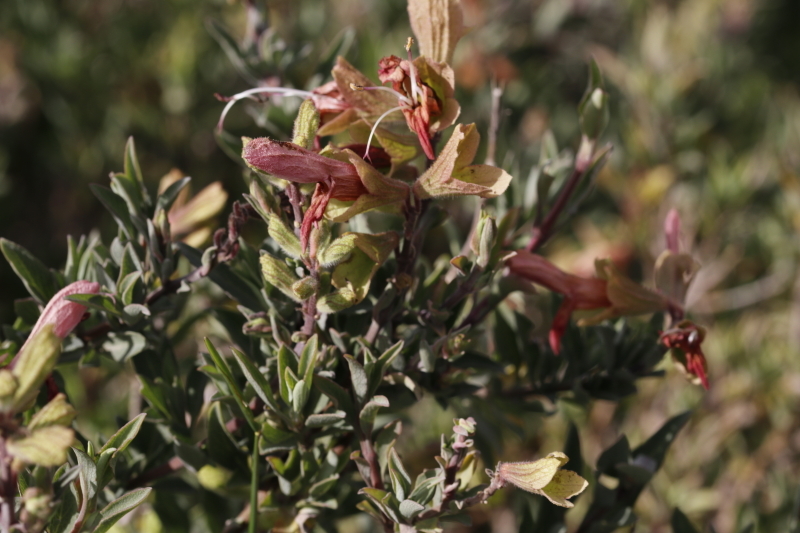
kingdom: Plantae
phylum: Tracheophyta
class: Magnoliopsida
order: Lamiales
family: Lamiaceae
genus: Salvia
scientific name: Salvia lanceolata
